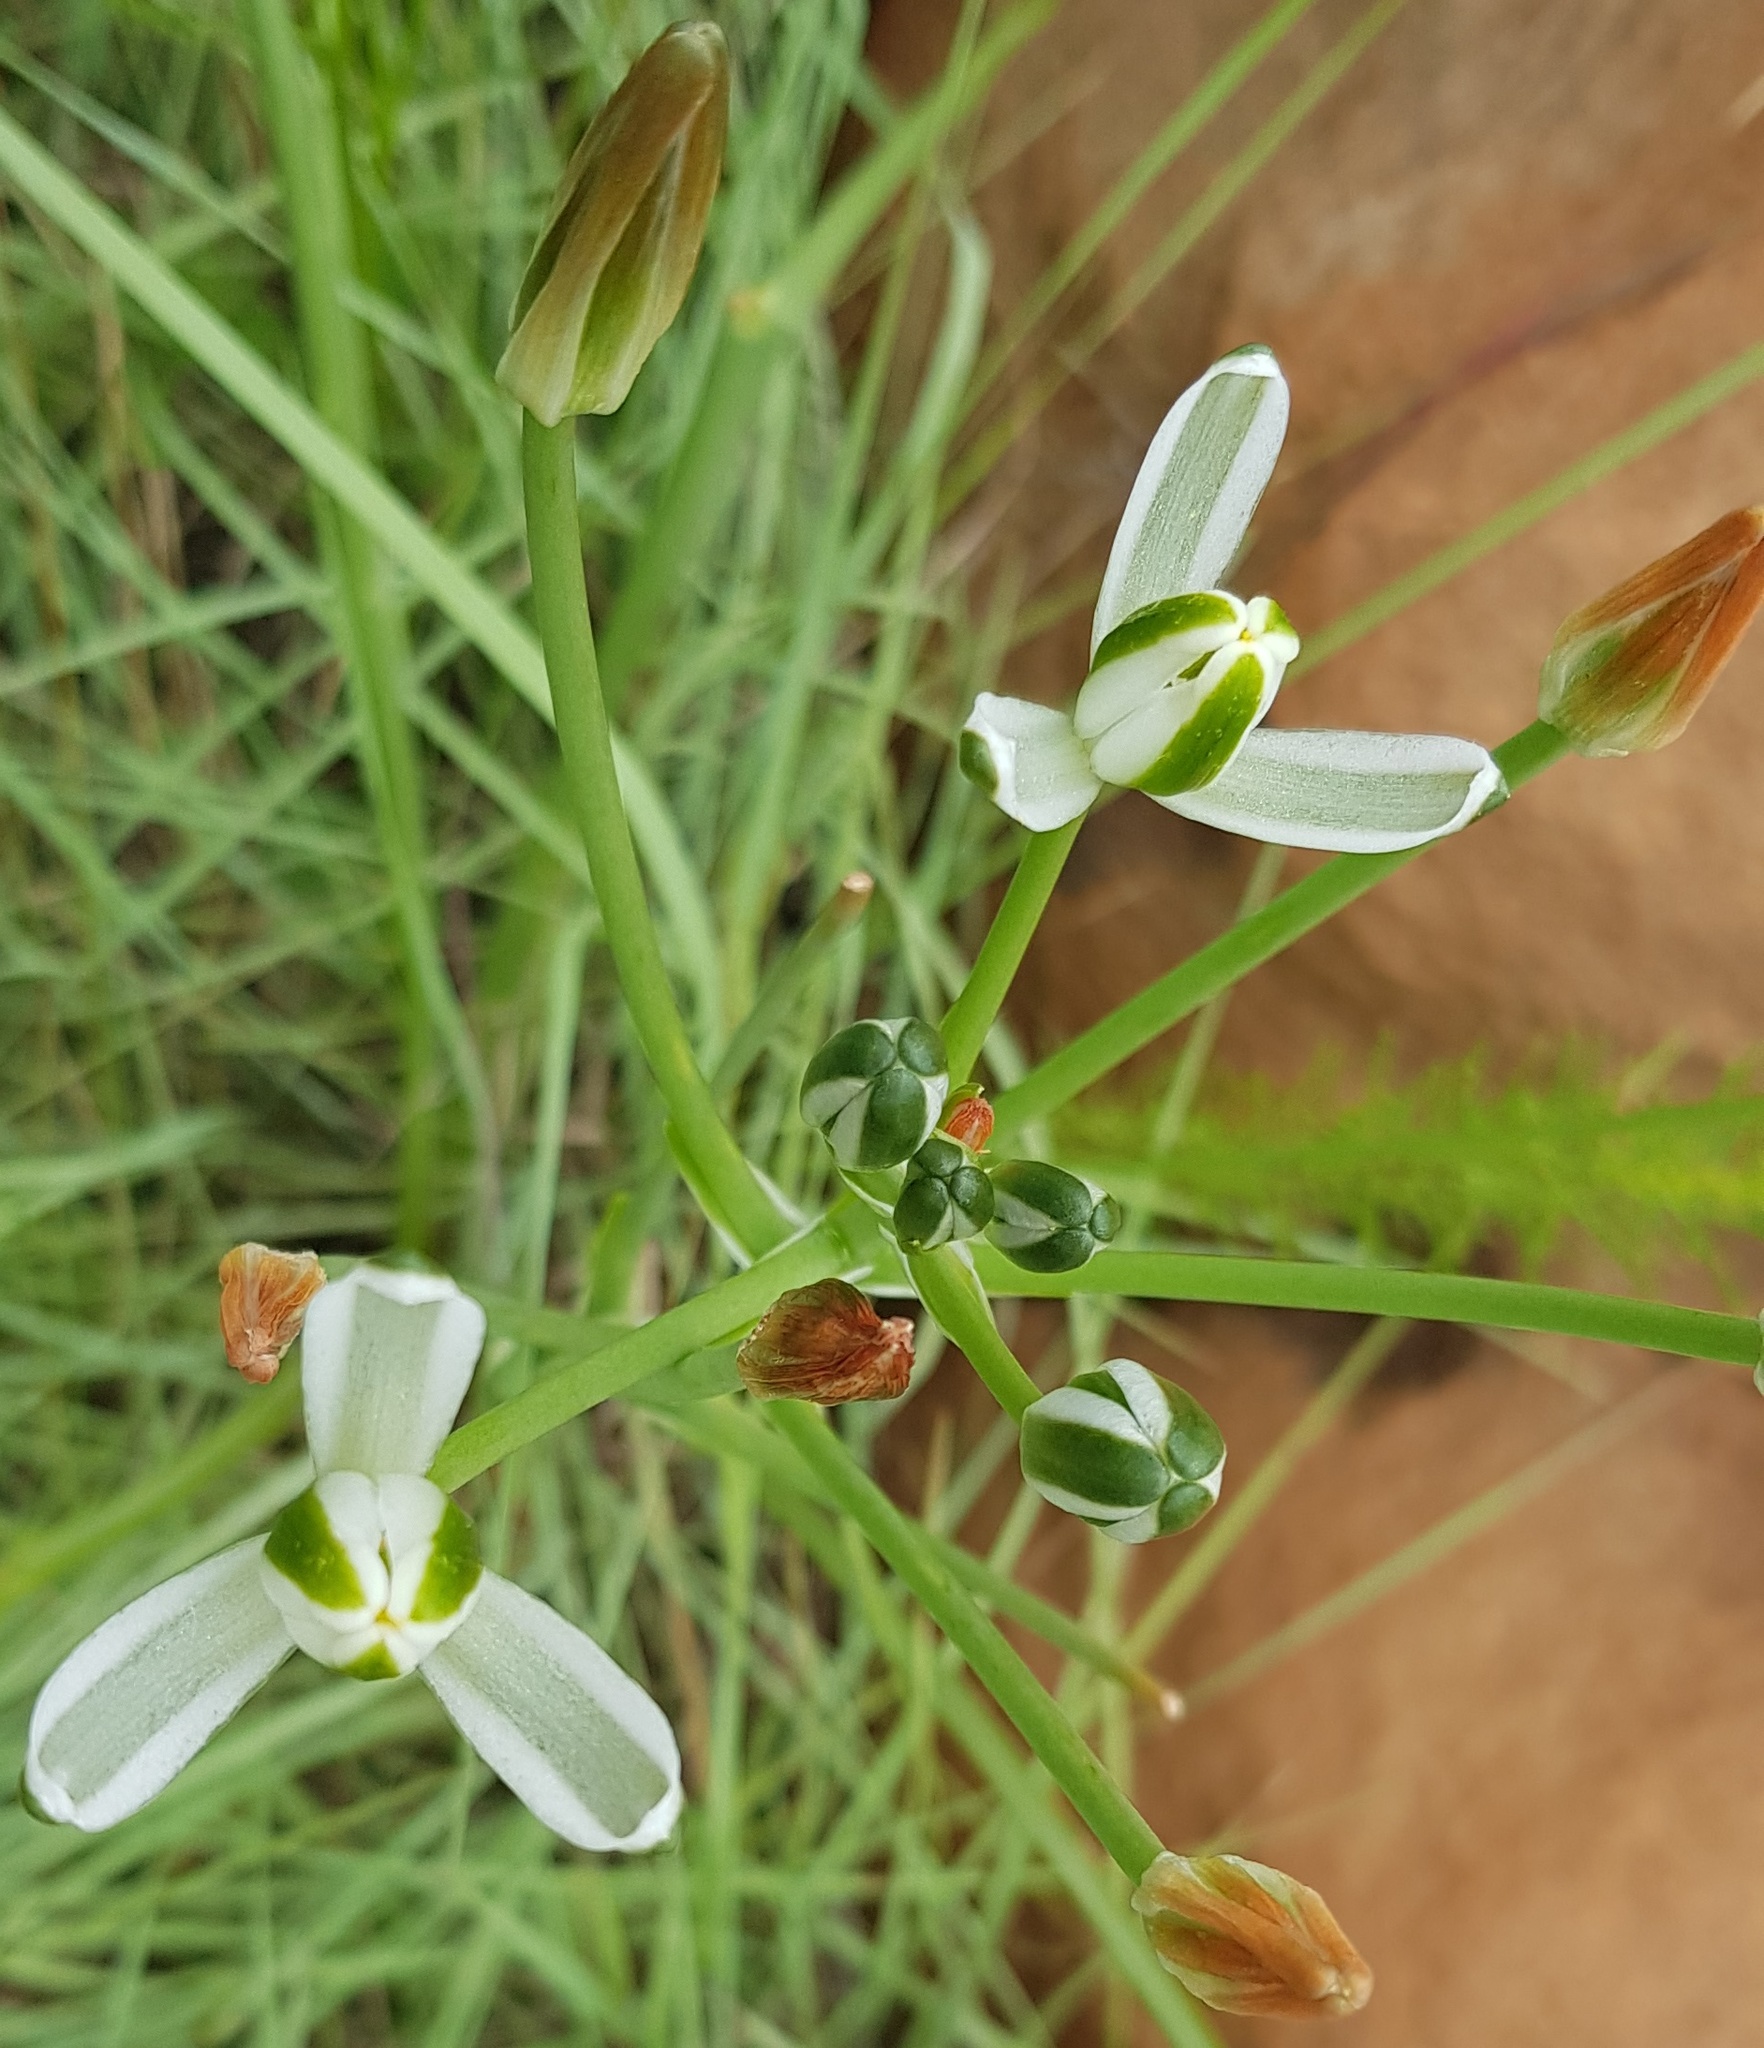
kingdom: Plantae
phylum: Tracheophyta
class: Liliopsida
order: Asparagales
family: Asparagaceae
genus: Albuca
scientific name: Albuca fastigiata
